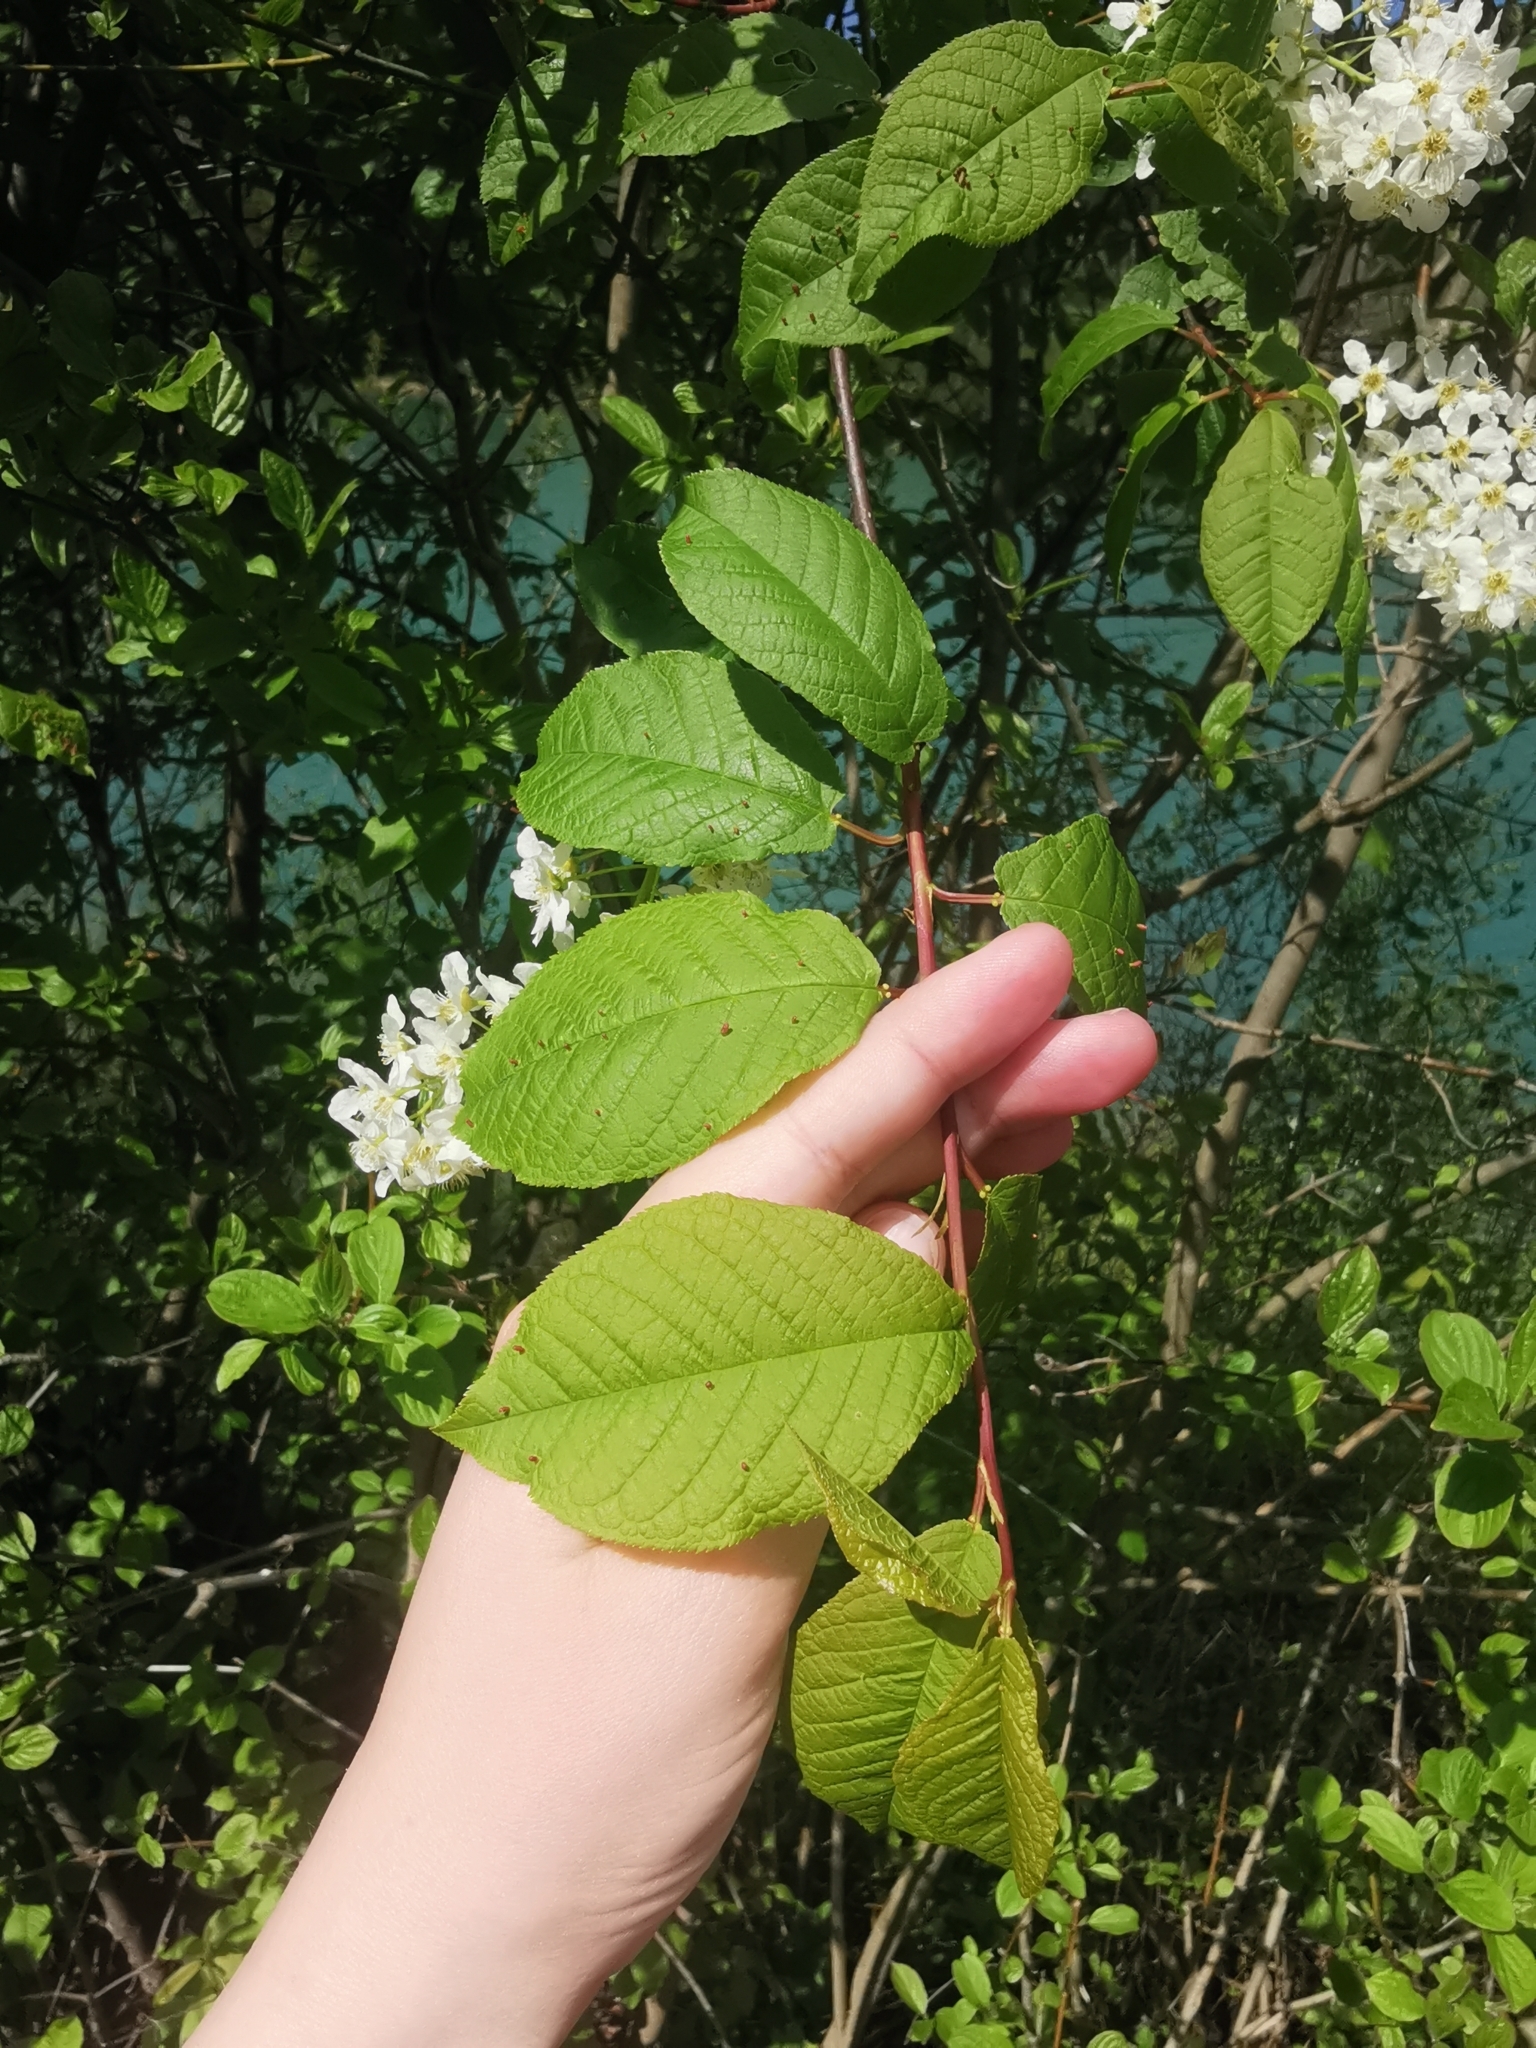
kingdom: Plantae
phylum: Tracheophyta
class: Magnoliopsida
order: Rosales
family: Rosaceae
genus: Prunus
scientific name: Prunus padus
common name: Bird cherry
